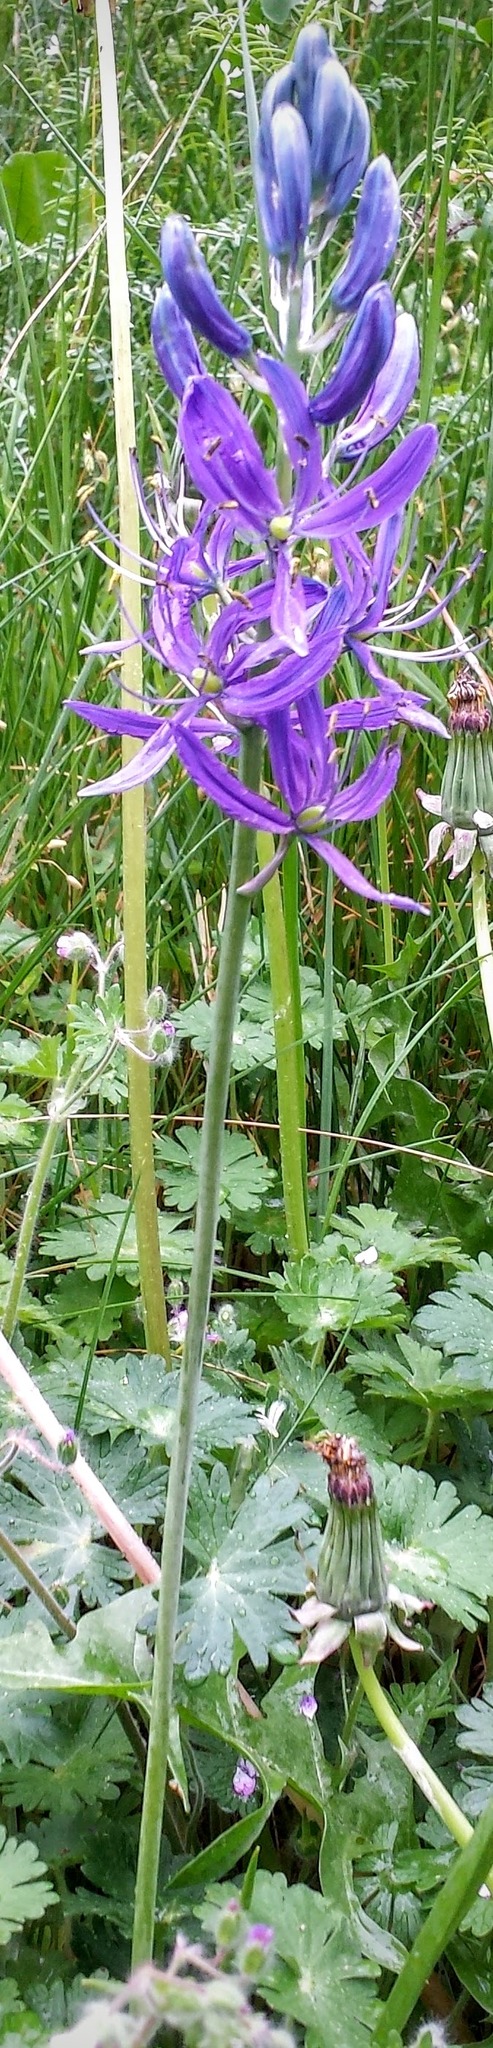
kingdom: Plantae
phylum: Tracheophyta
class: Liliopsida
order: Asparagales
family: Asparagaceae
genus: Camassia
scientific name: Camassia quamash
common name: Common camas
